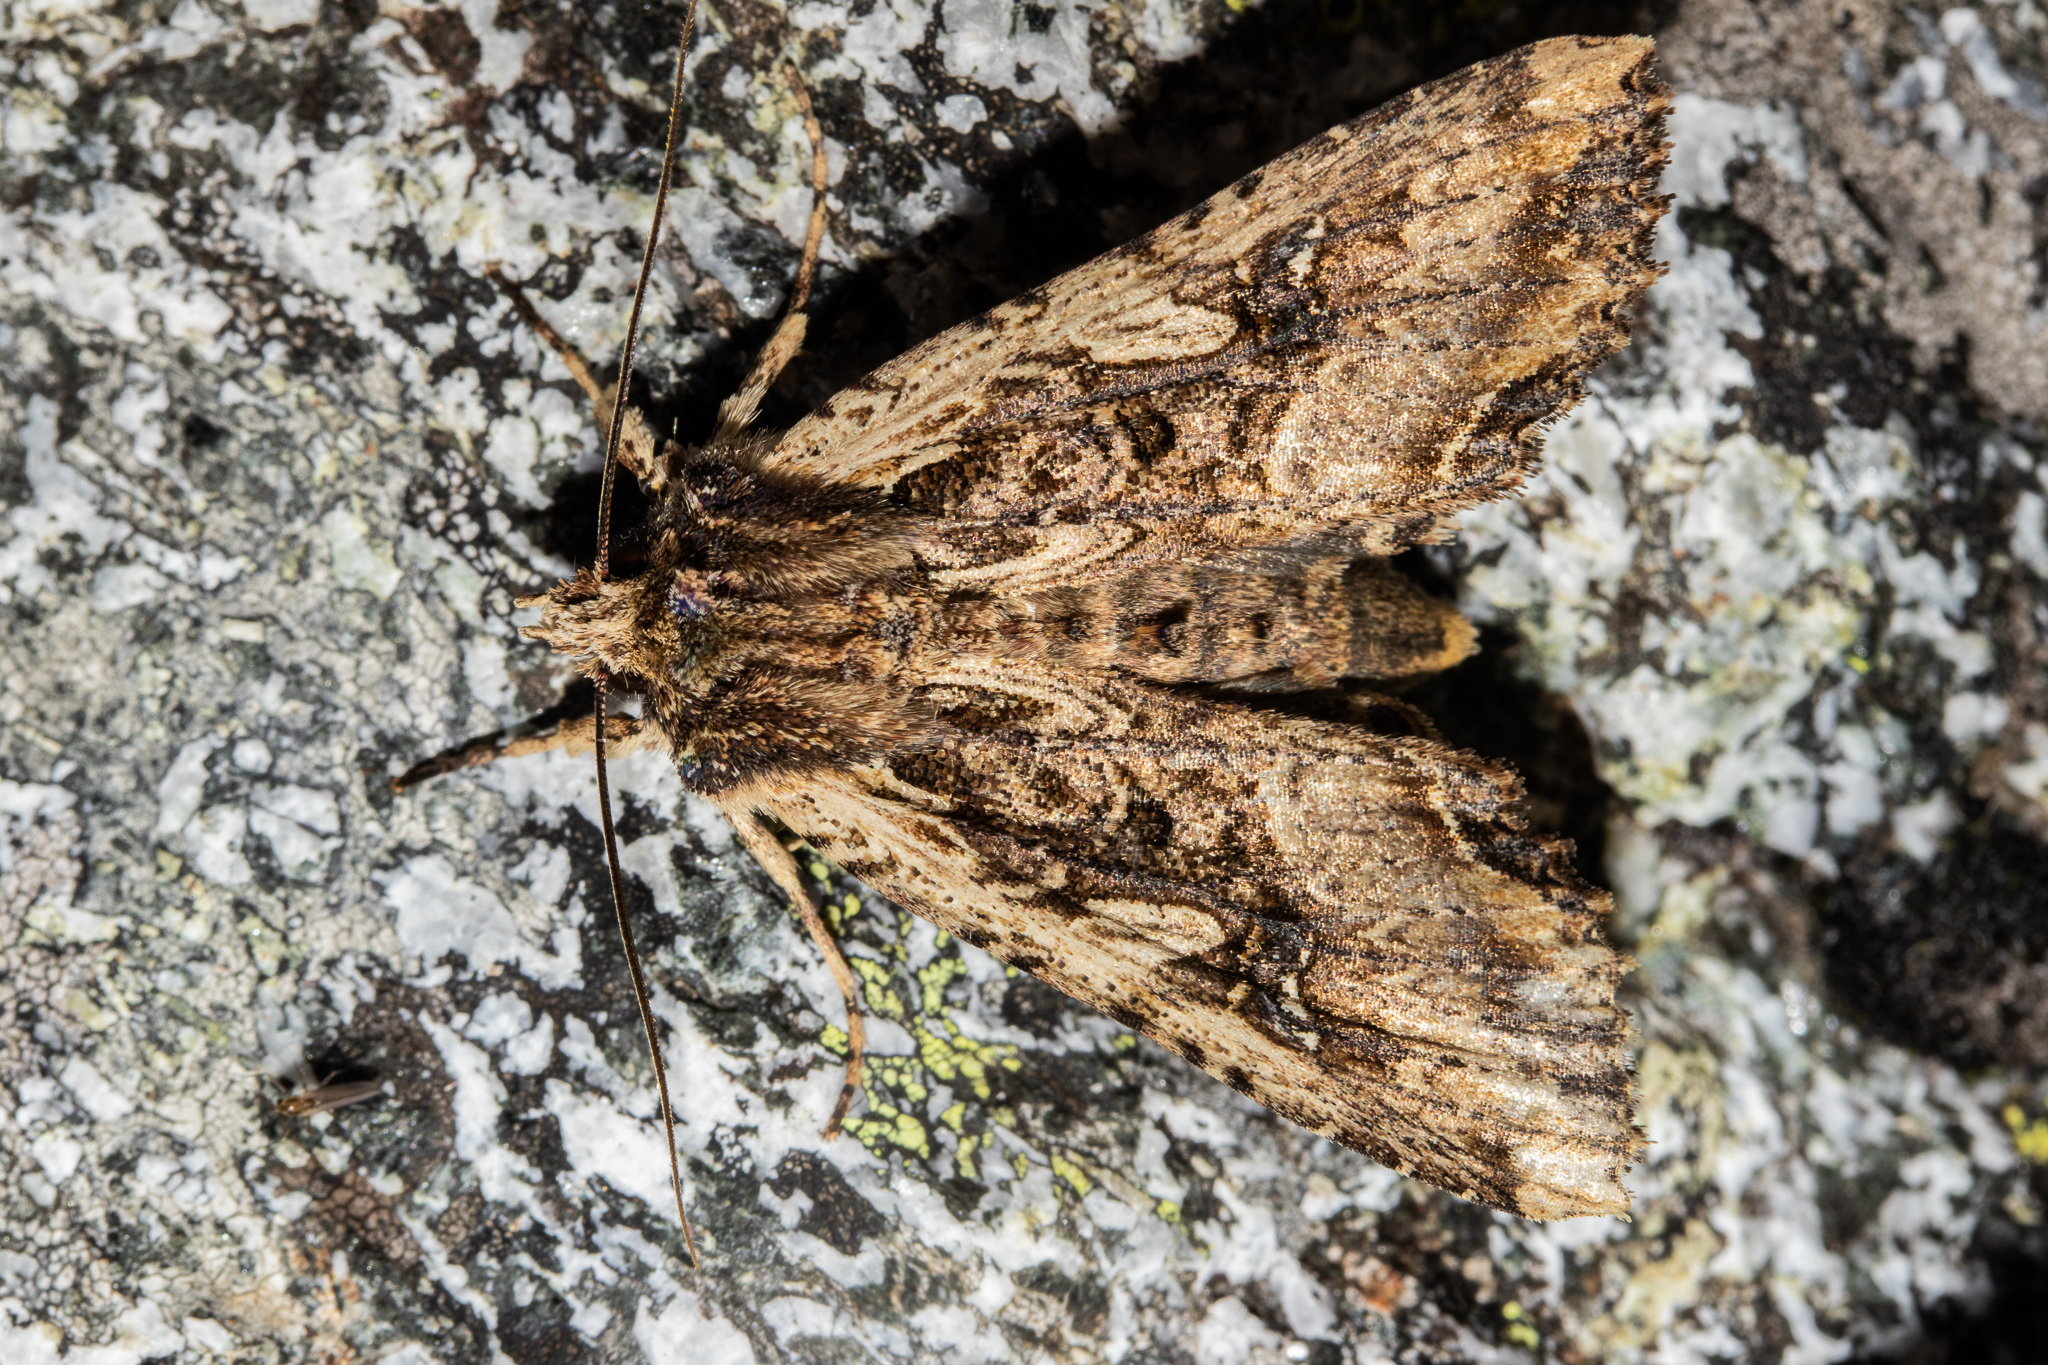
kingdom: Animalia
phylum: Arthropoda
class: Insecta
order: Lepidoptera
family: Noctuidae
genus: Meterana
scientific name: Meterana stipata
